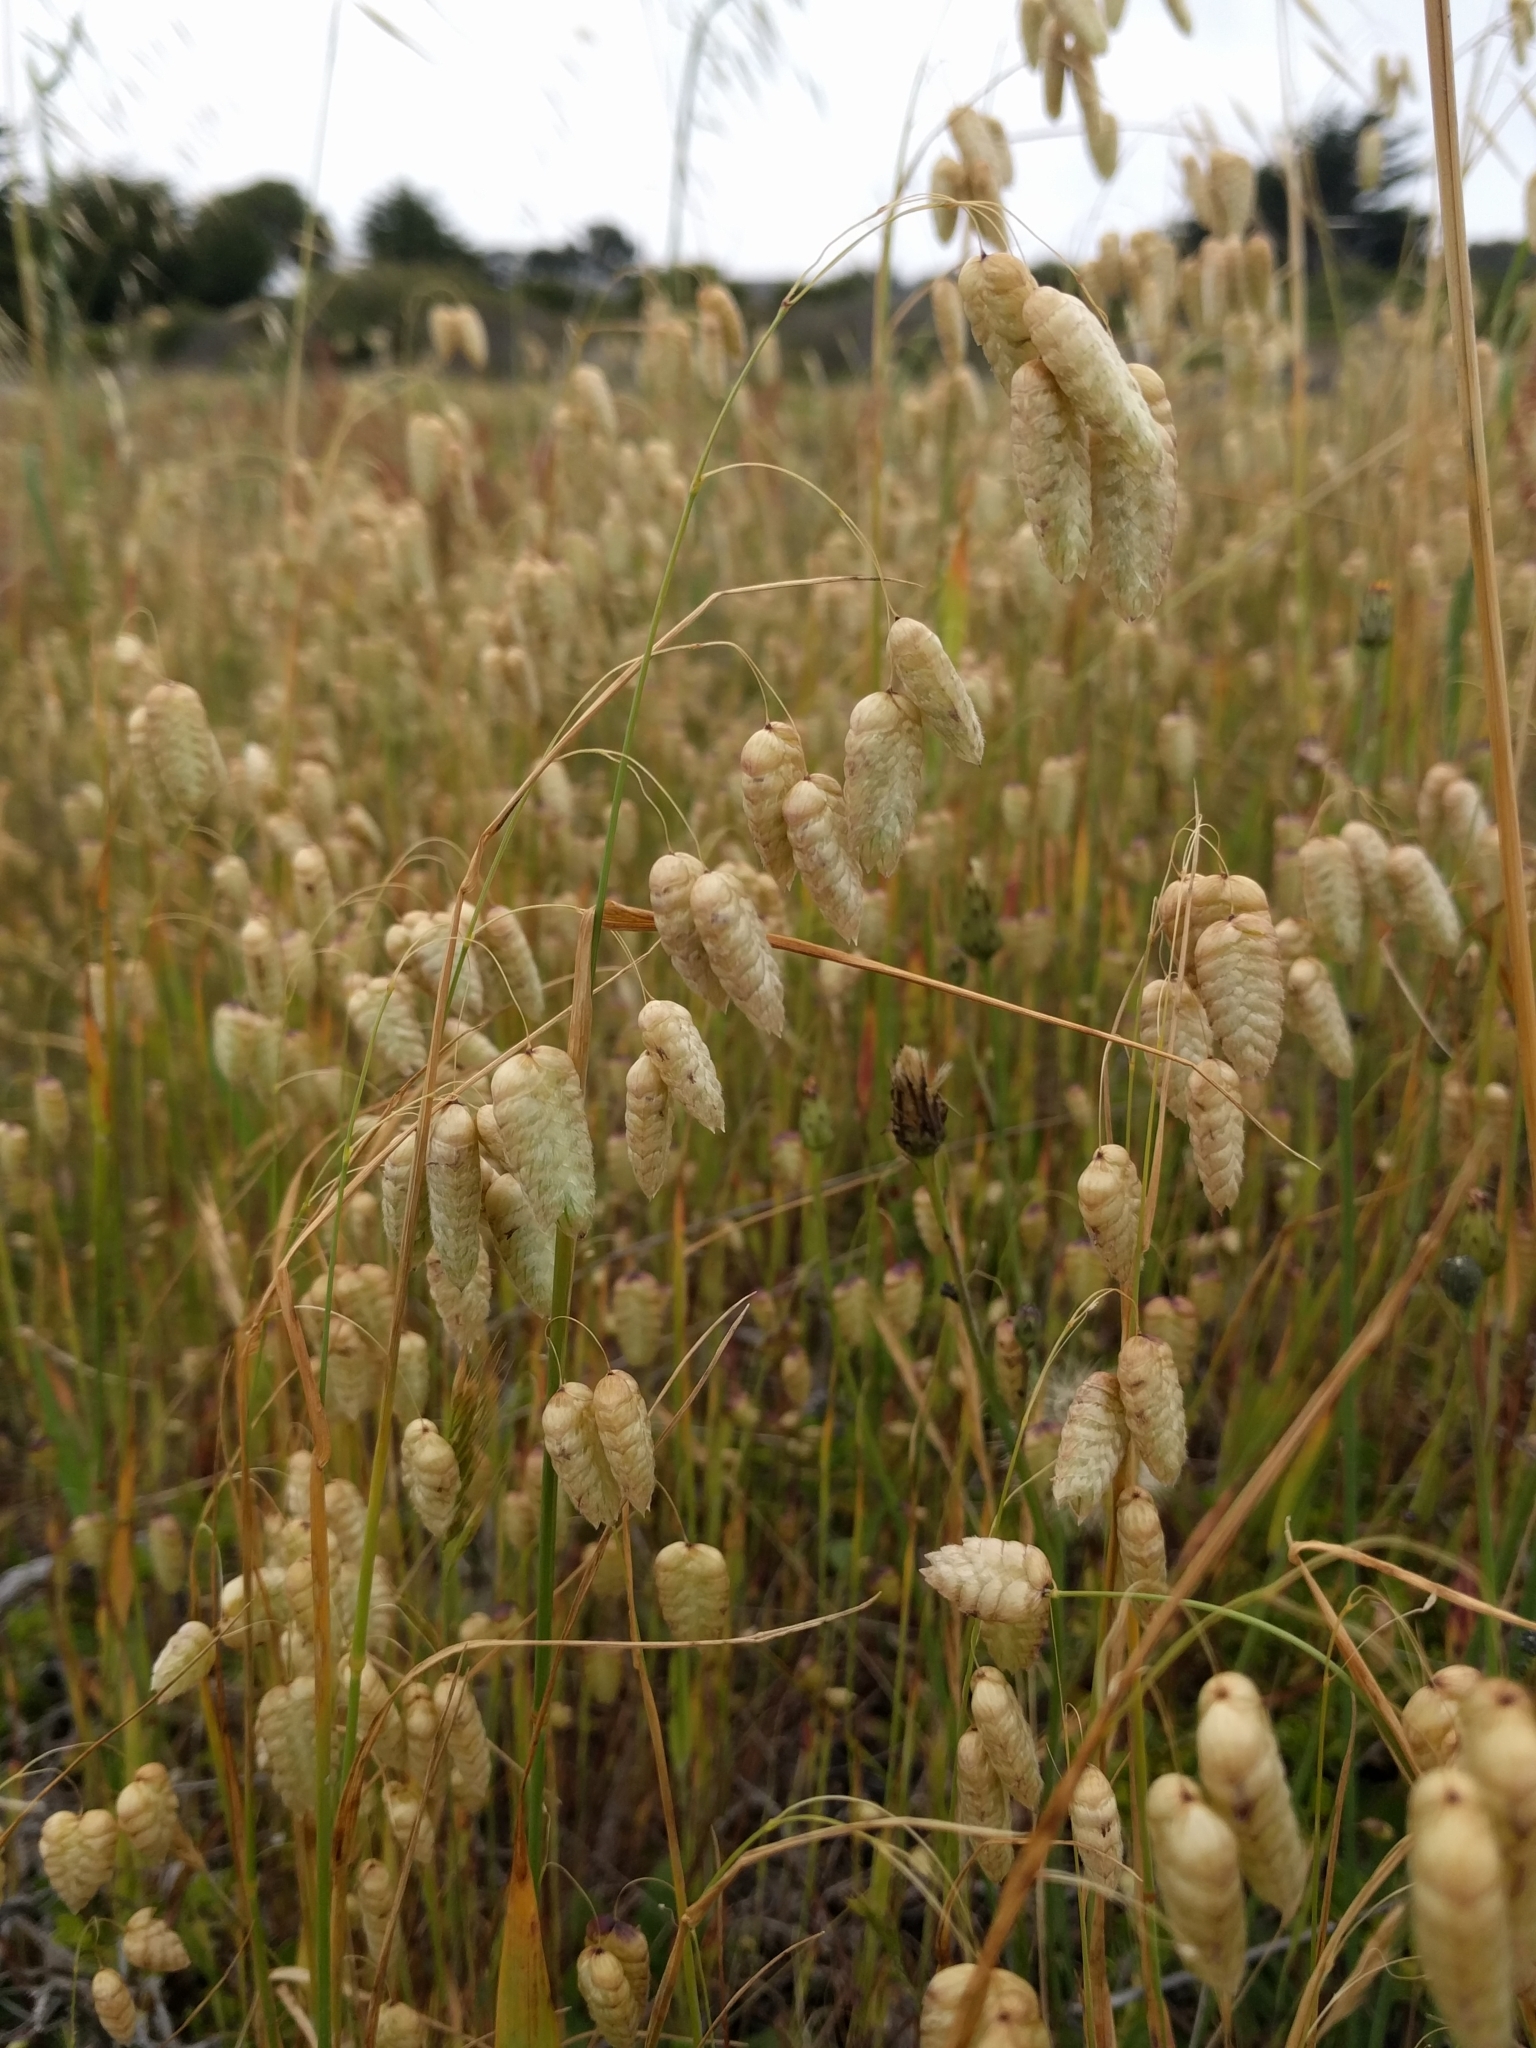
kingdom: Plantae
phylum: Tracheophyta
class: Liliopsida
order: Poales
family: Poaceae
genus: Briza
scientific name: Briza maxima
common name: Big quakinggrass
